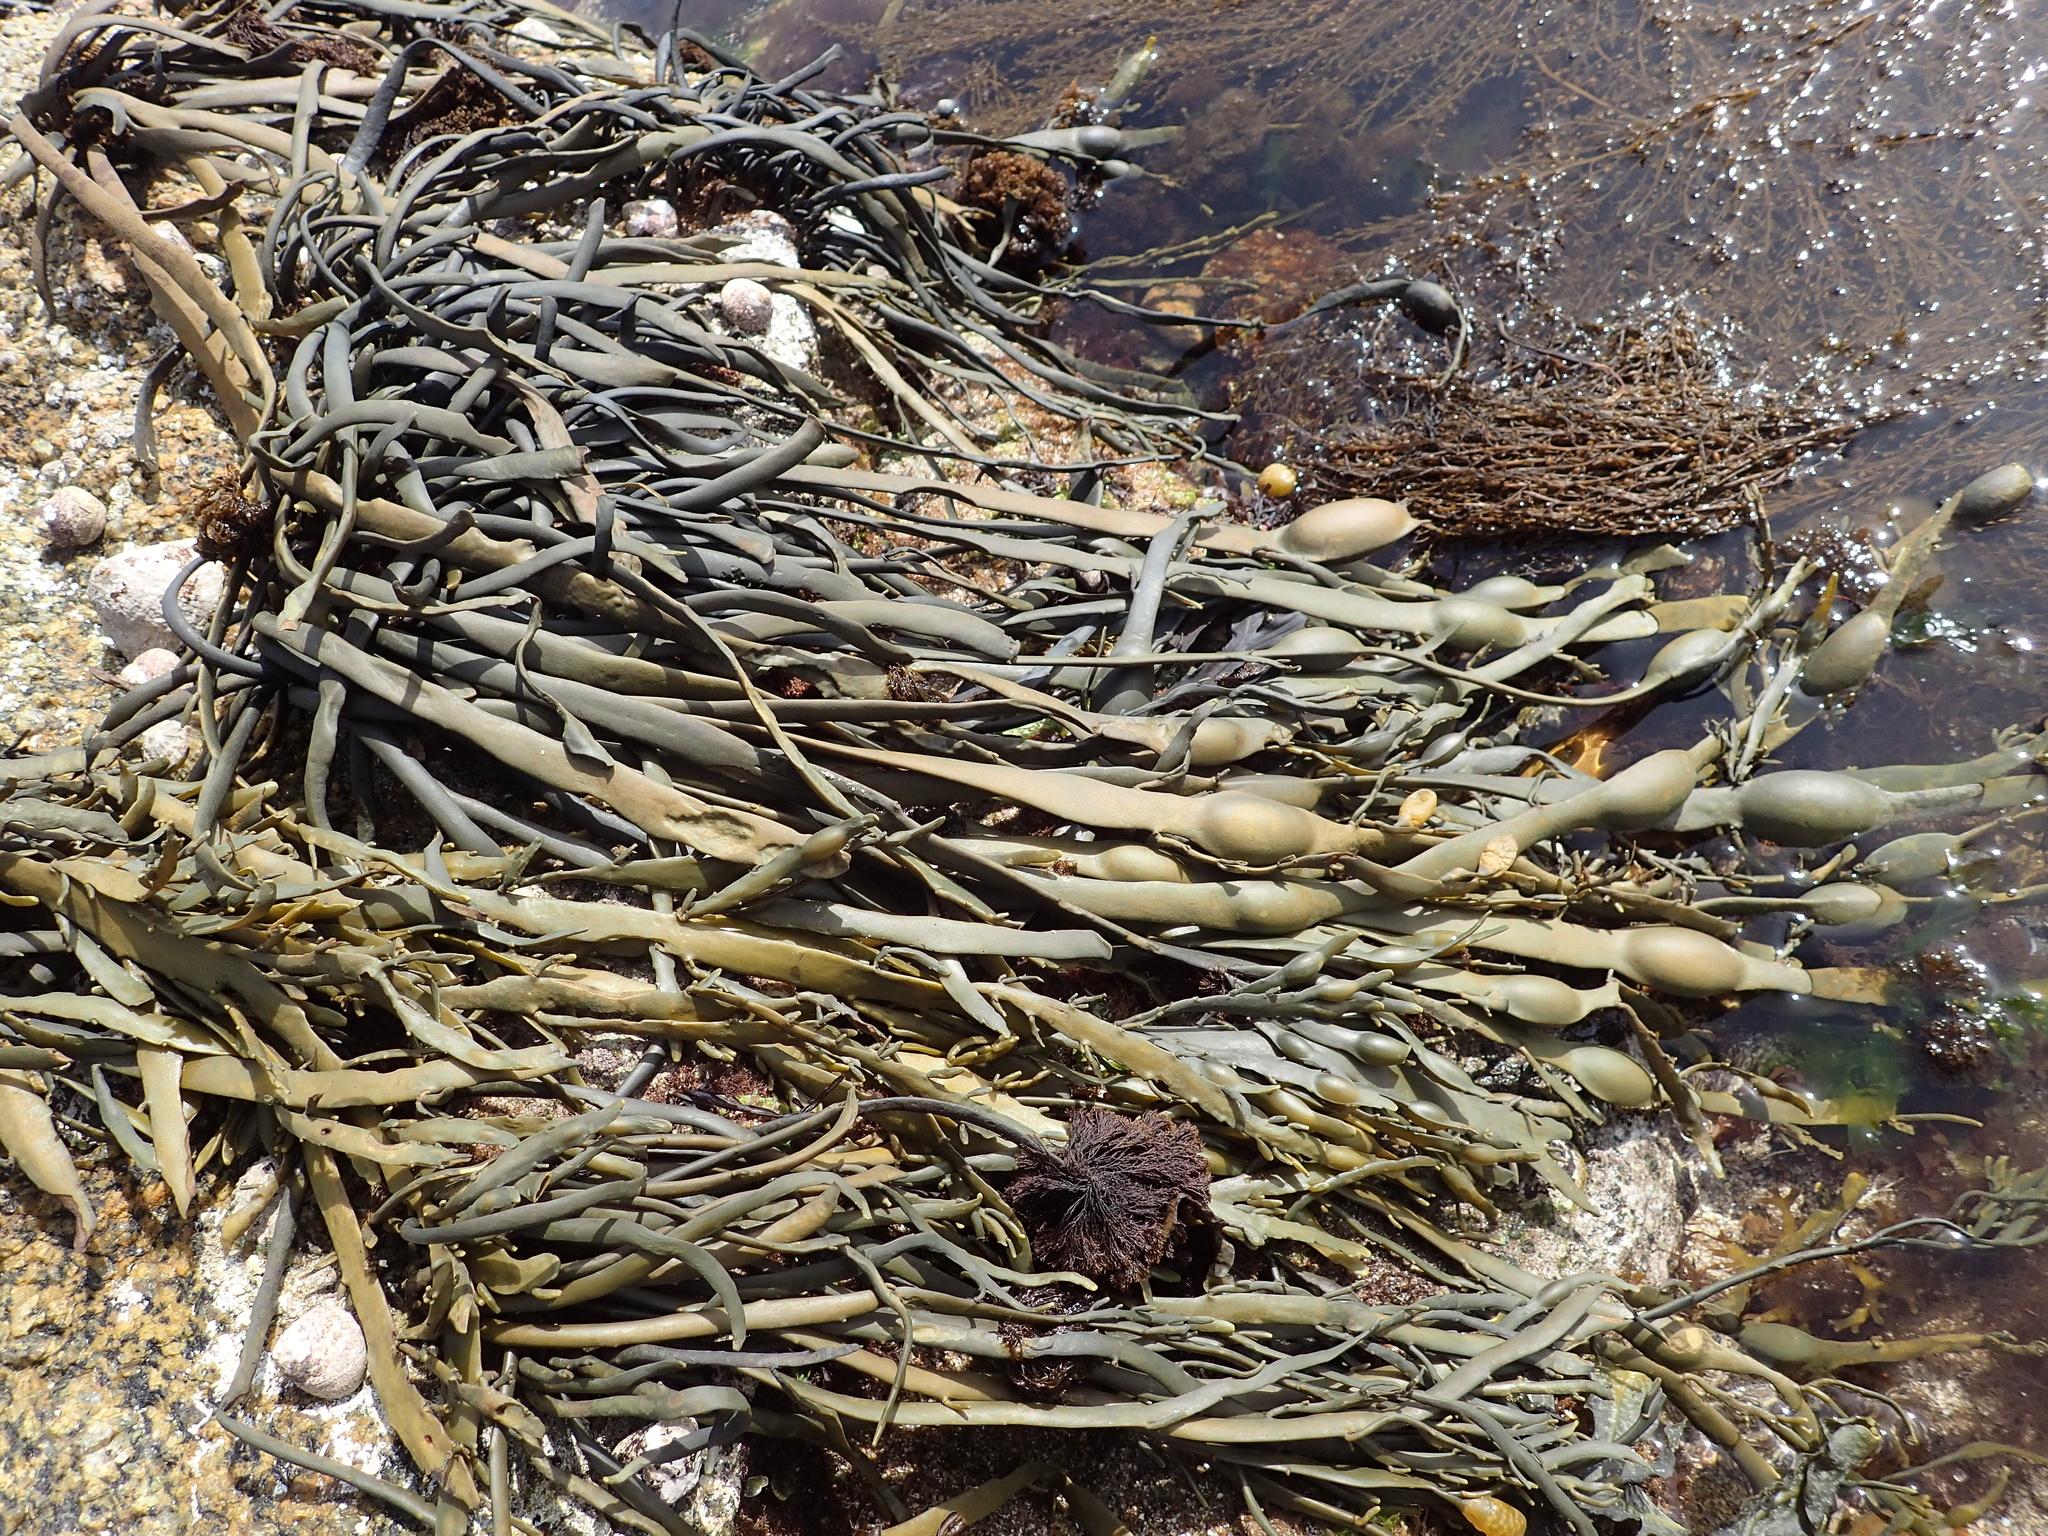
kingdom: Chromista
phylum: Ochrophyta
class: Phaeophyceae
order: Fucales
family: Fucaceae
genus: Ascophyllum
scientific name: Ascophyllum nodosum
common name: Knotted wrack
